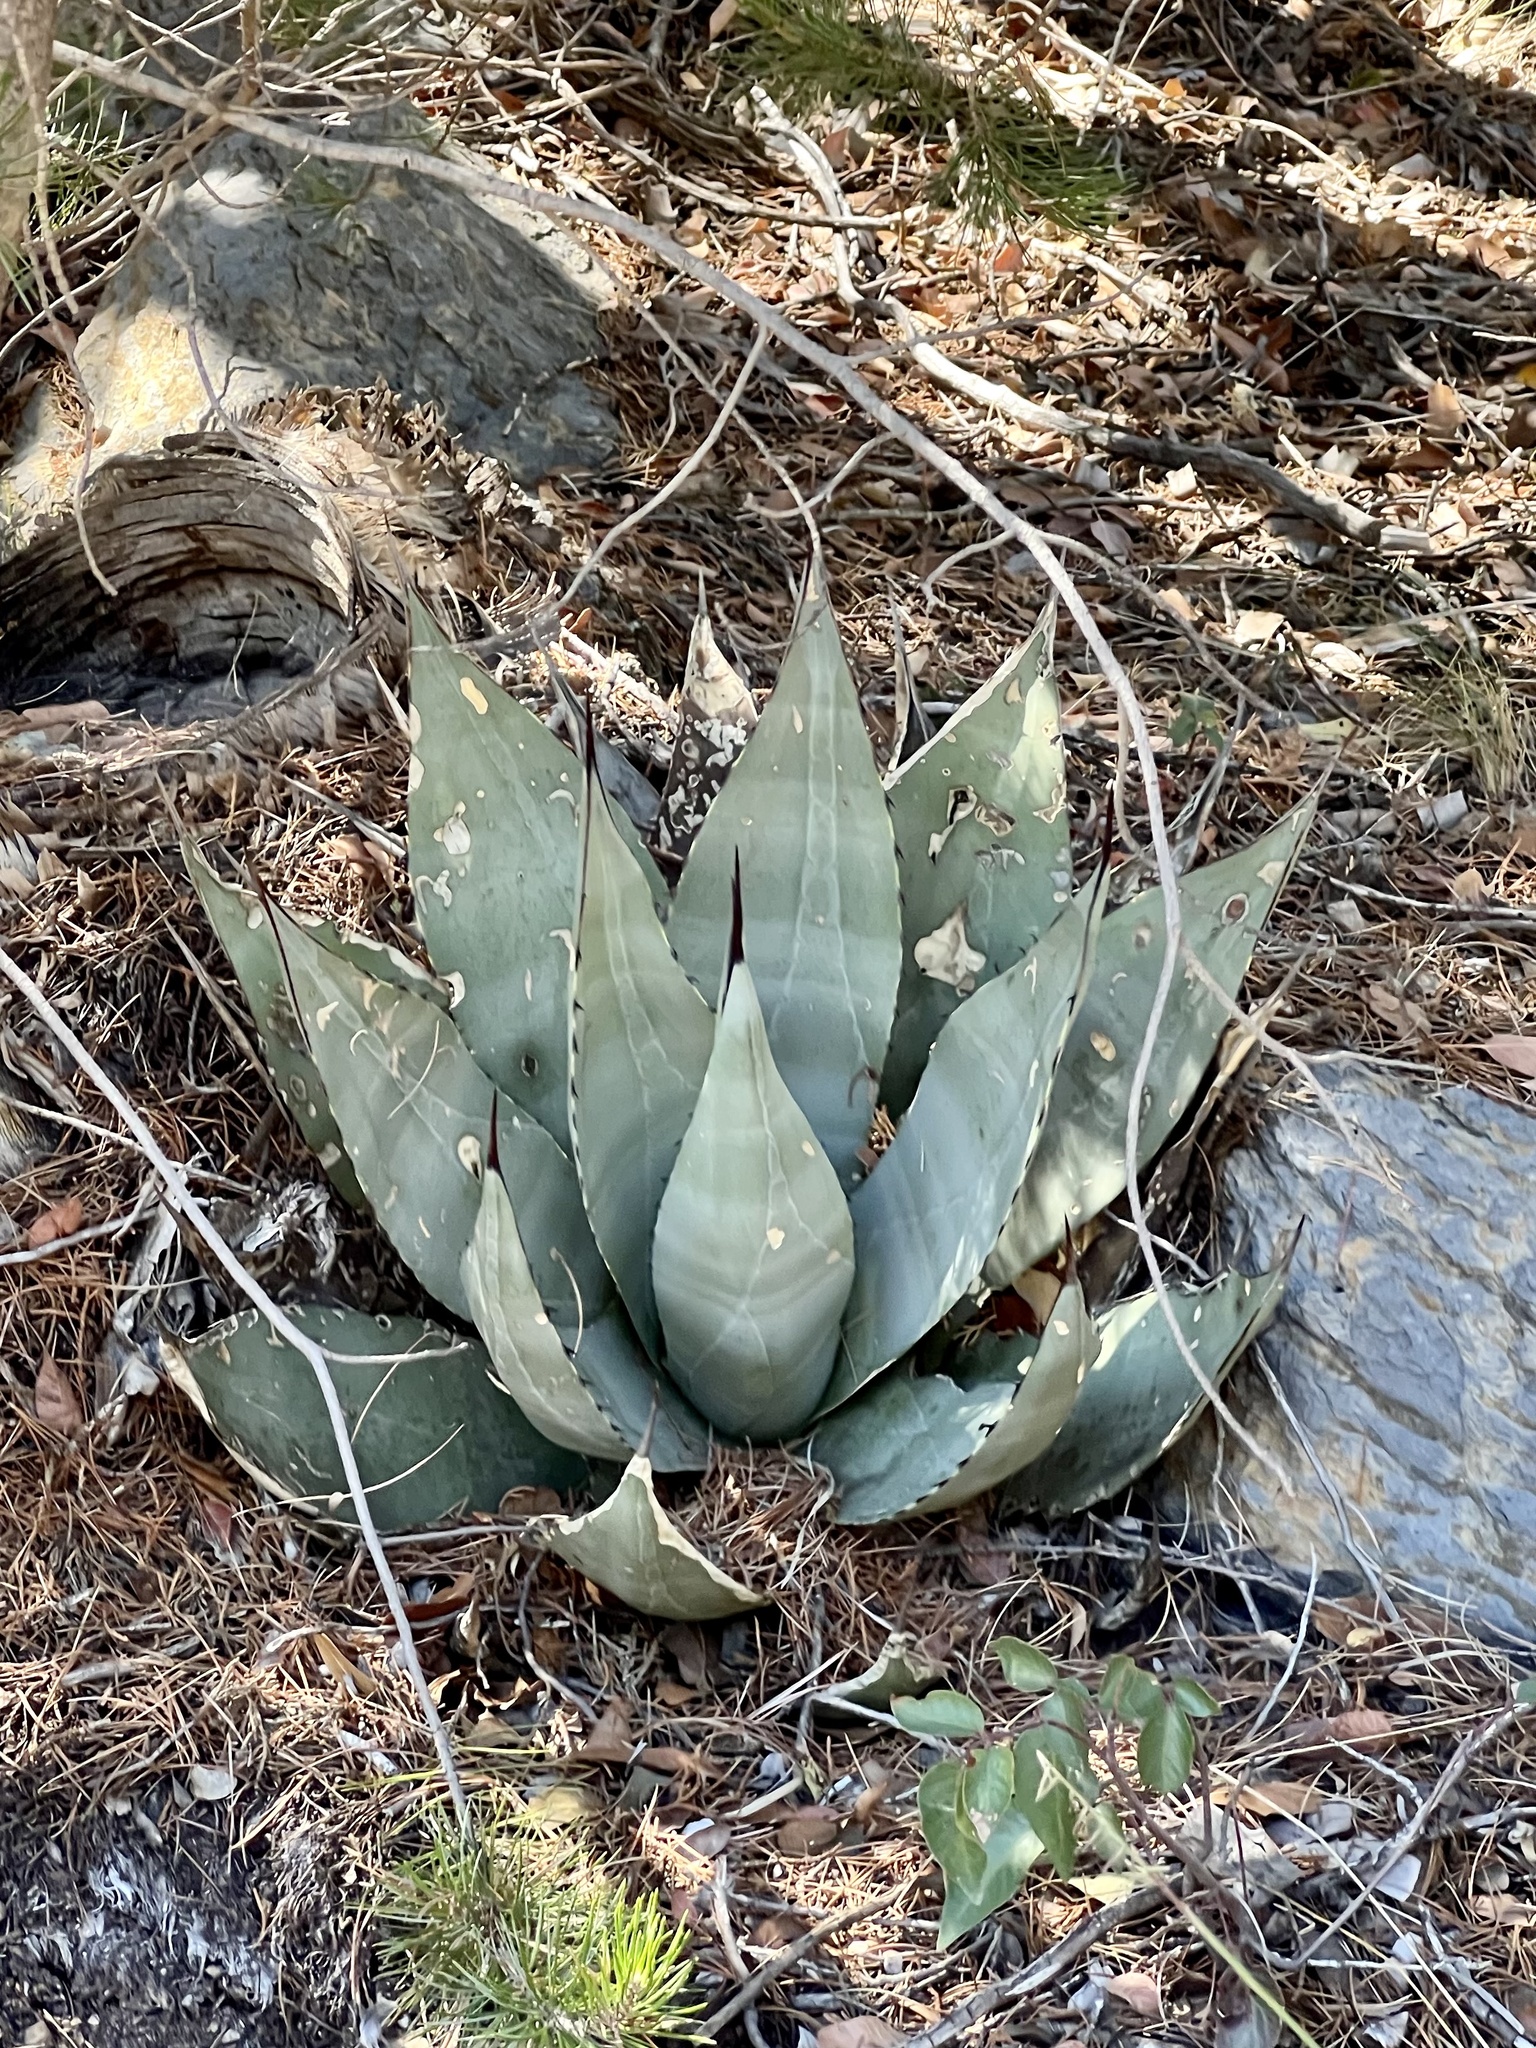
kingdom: Plantae
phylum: Tracheophyta
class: Liliopsida
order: Asparagales
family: Asparagaceae
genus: Agave
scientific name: Agave parryi
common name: Parry's agave
